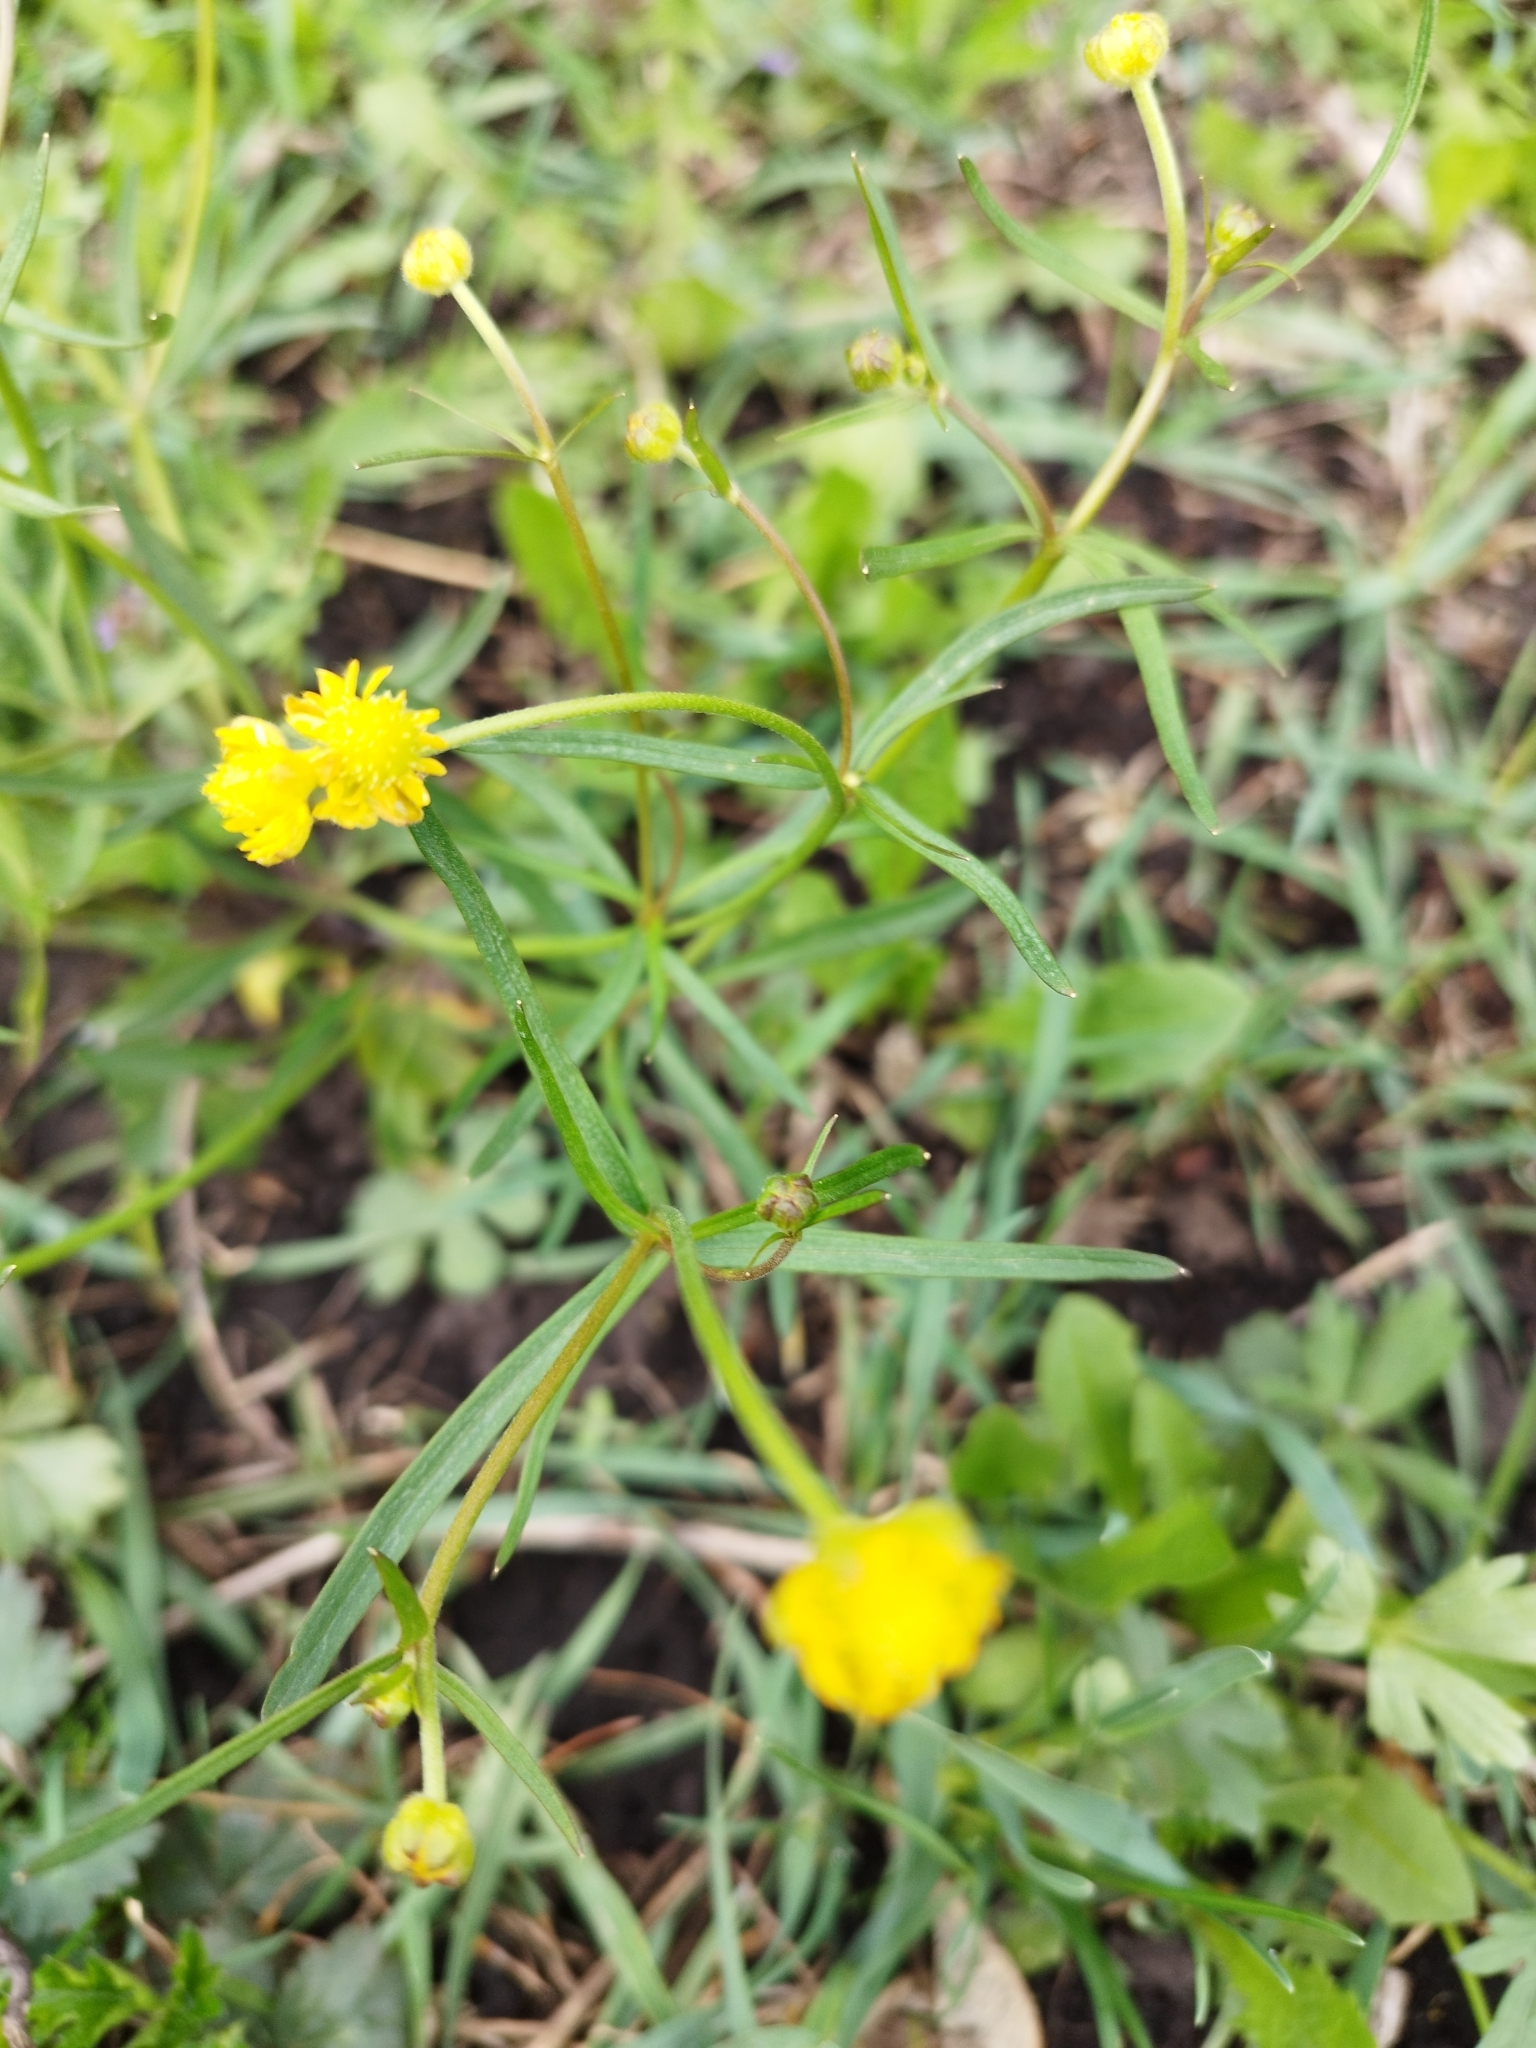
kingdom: Plantae
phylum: Tracheophyta
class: Magnoliopsida
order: Ranunculales
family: Ranunculaceae
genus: Ranunculus
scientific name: Ranunculus auricomus
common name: Goldilocks buttercup
